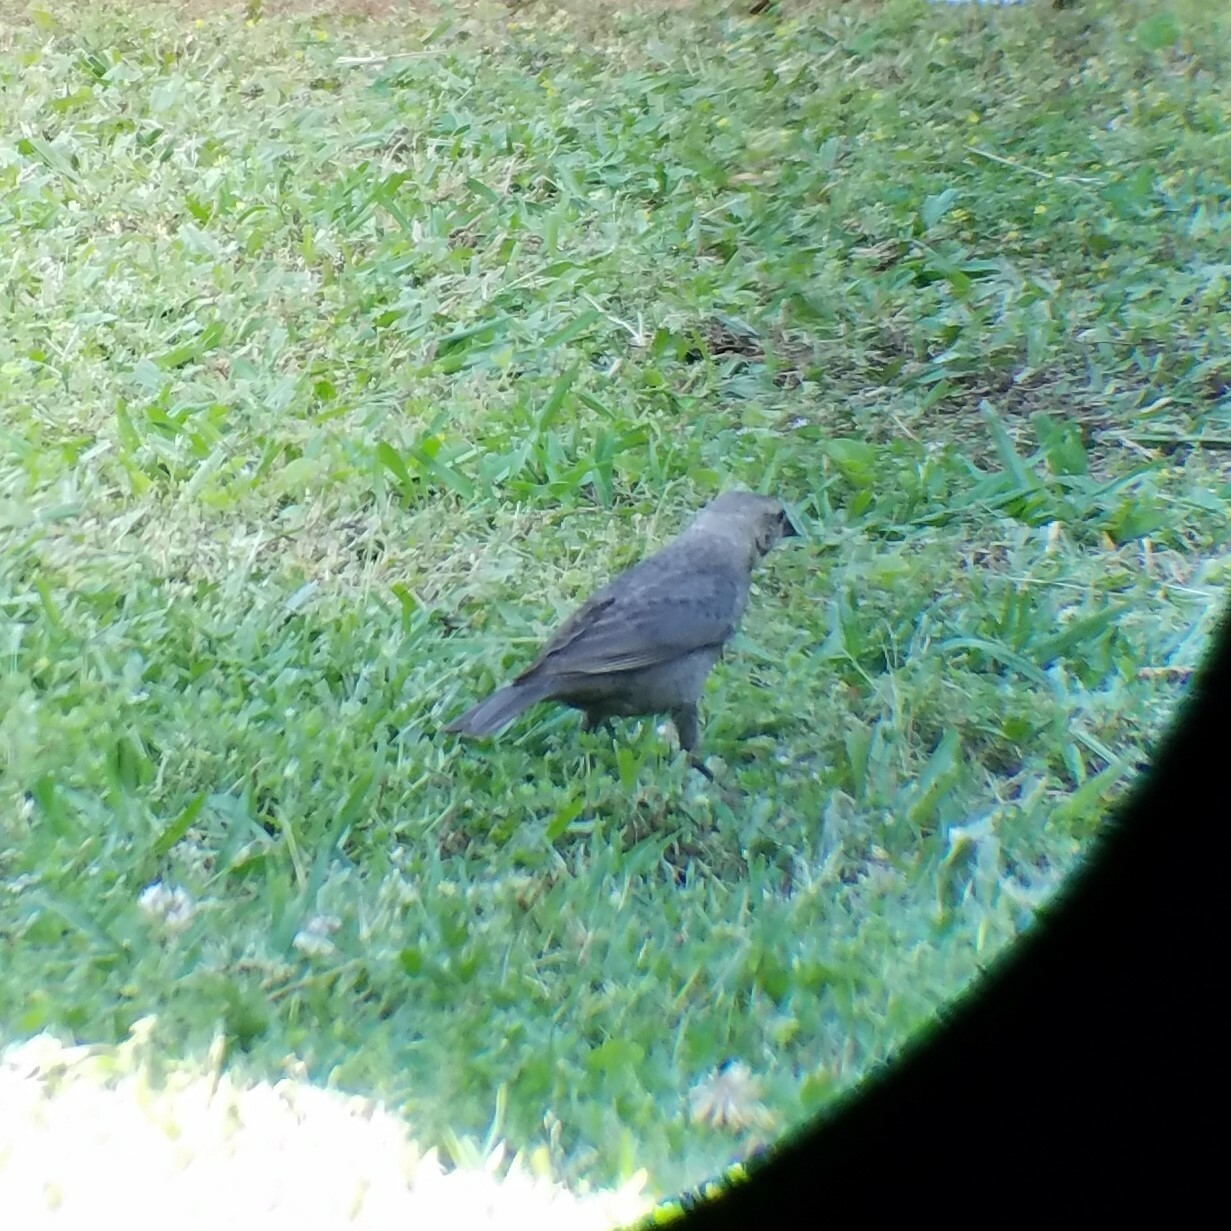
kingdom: Animalia
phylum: Chordata
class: Aves
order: Passeriformes
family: Icteridae
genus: Molothrus
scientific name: Molothrus ater
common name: Brown-headed cowbird
